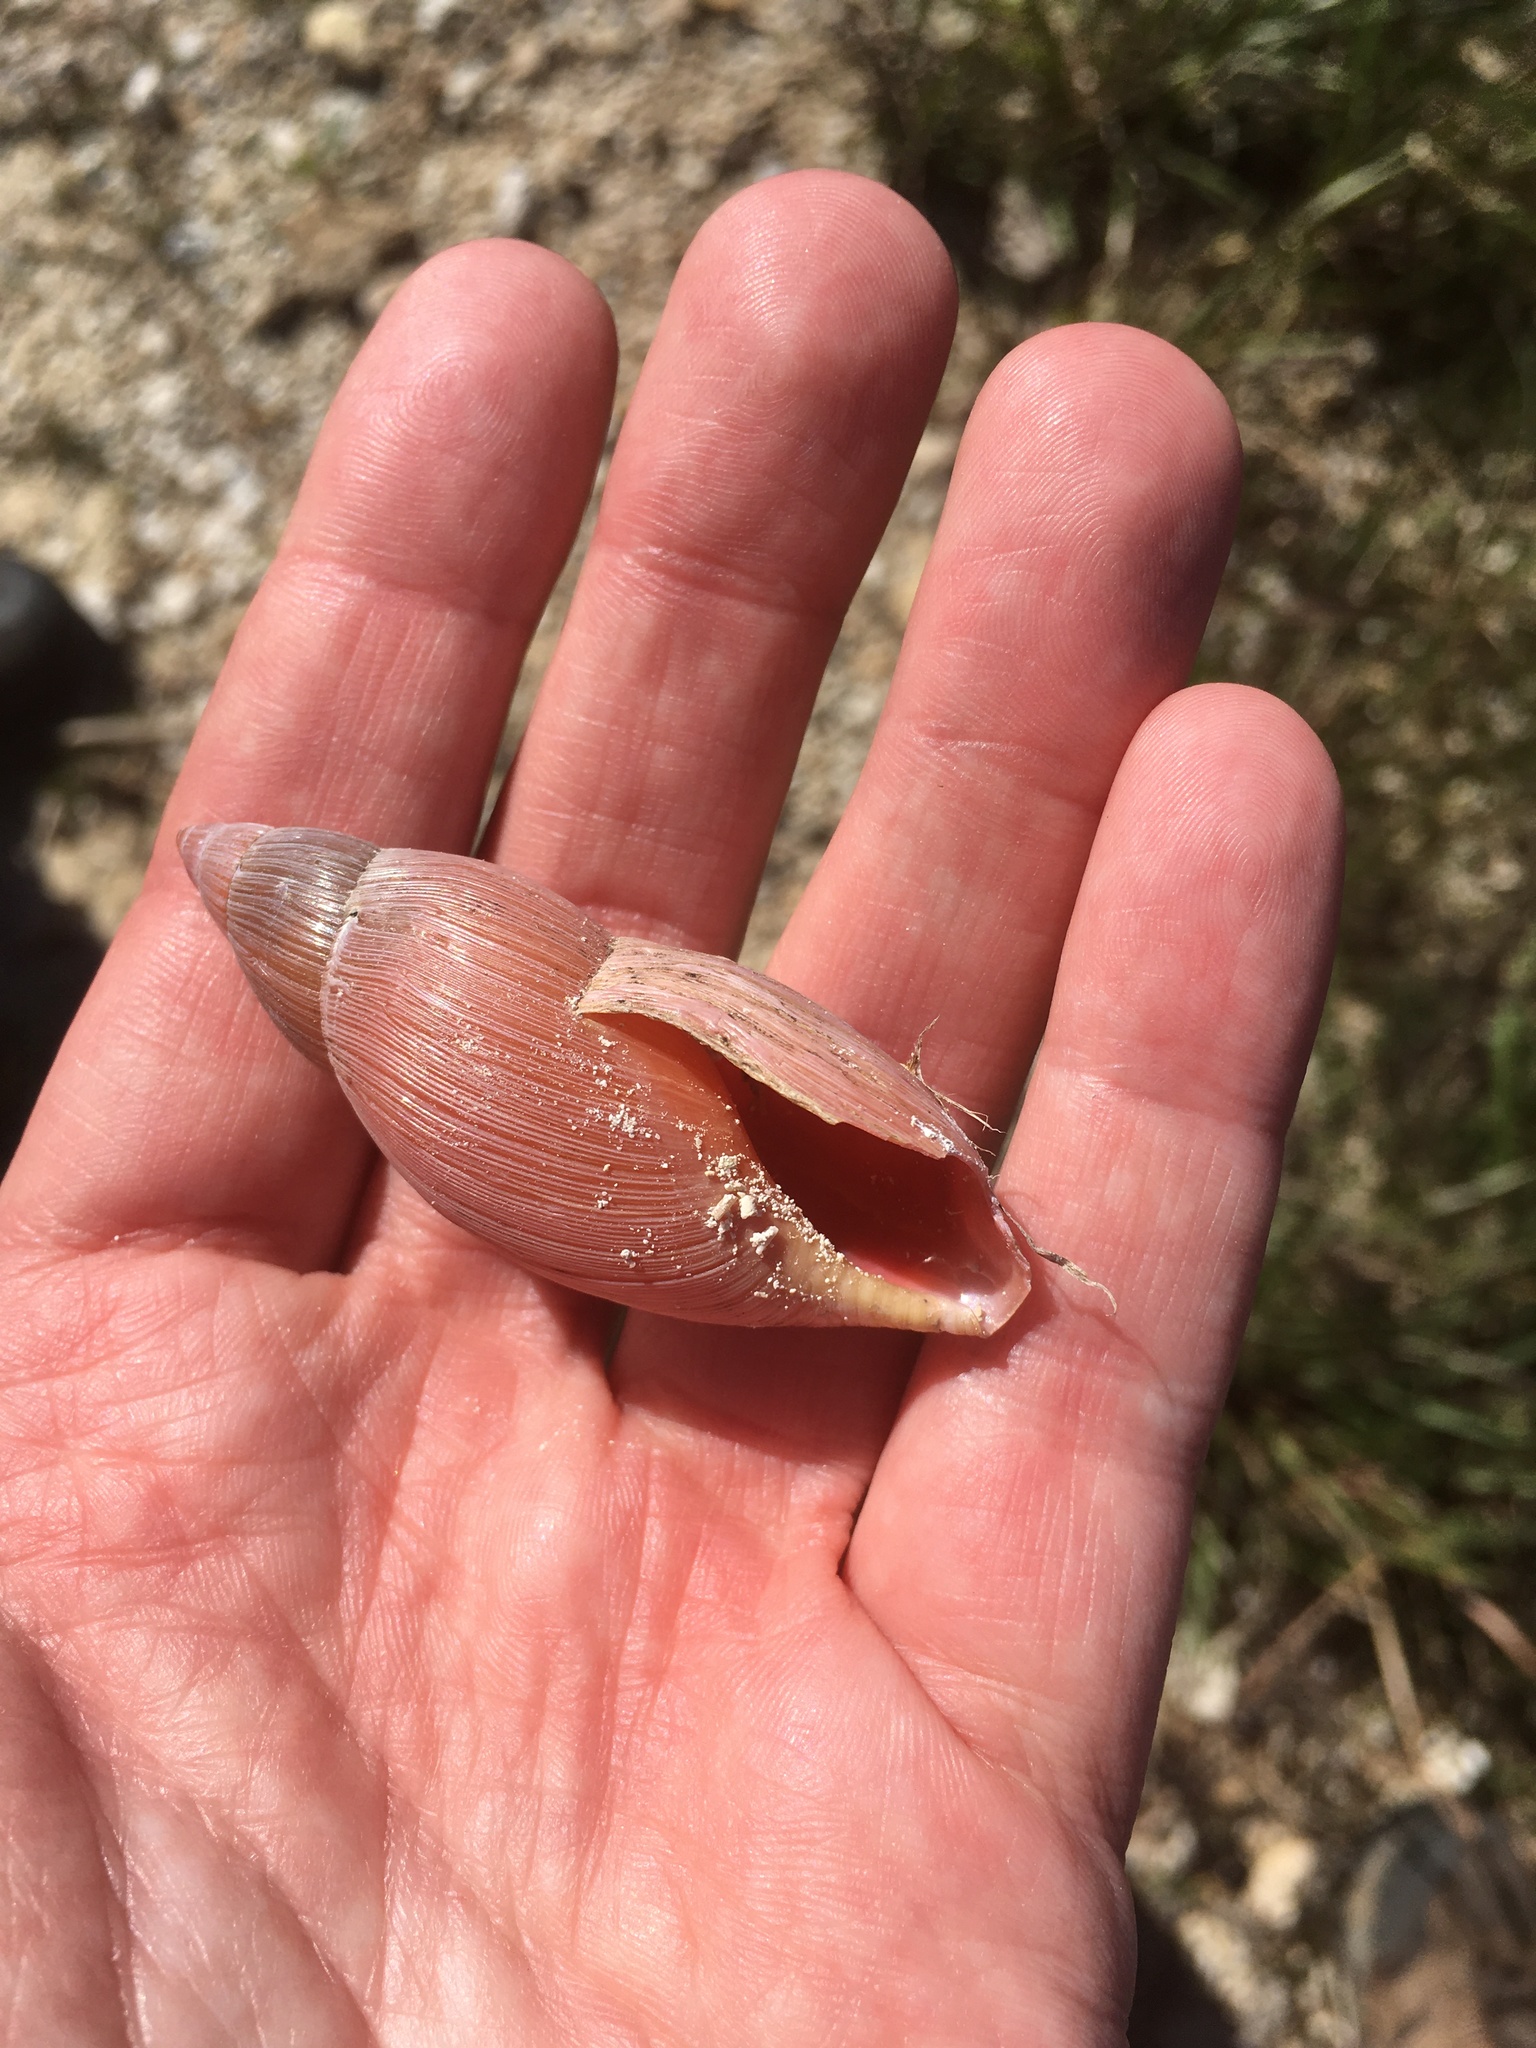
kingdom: Animalia
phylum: Mollusca
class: Gastropoda
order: Stylommatophora
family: Spiraxidae
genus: Euglandina
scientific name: Euglandina rosea
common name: Rosy wolfsnail
